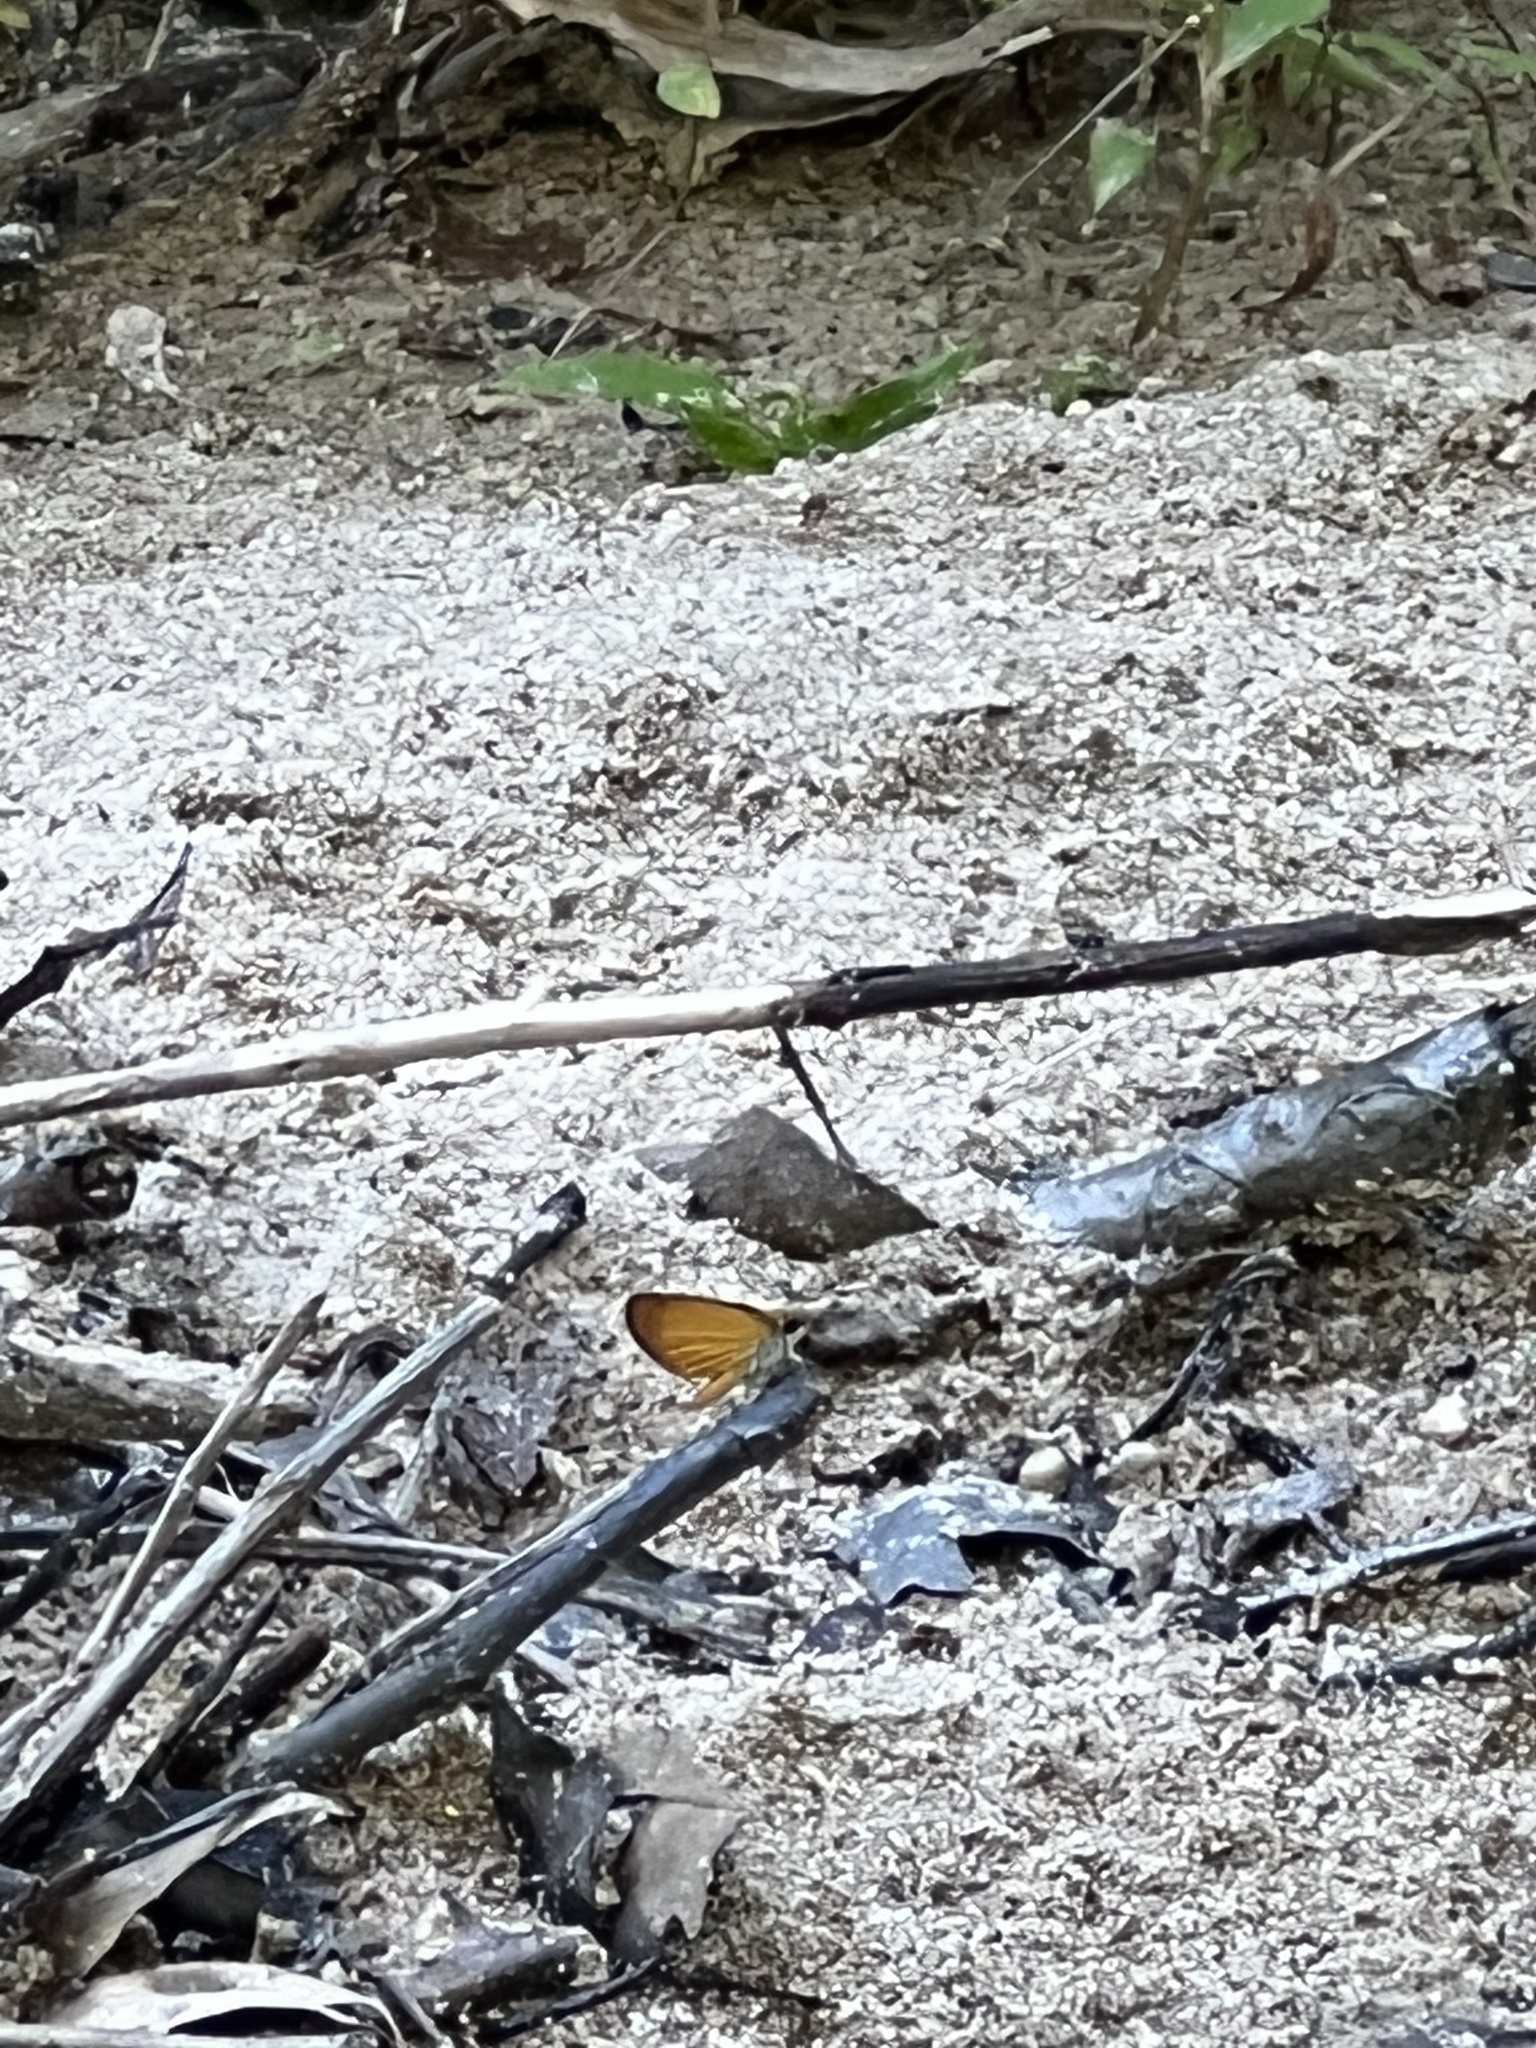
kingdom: Animalia
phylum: Arthropoda
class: Insecta
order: Lepidoptera
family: Hesperiidae
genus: Ancyloxypha
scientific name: Ancyloxypha numitor
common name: Least skipper
